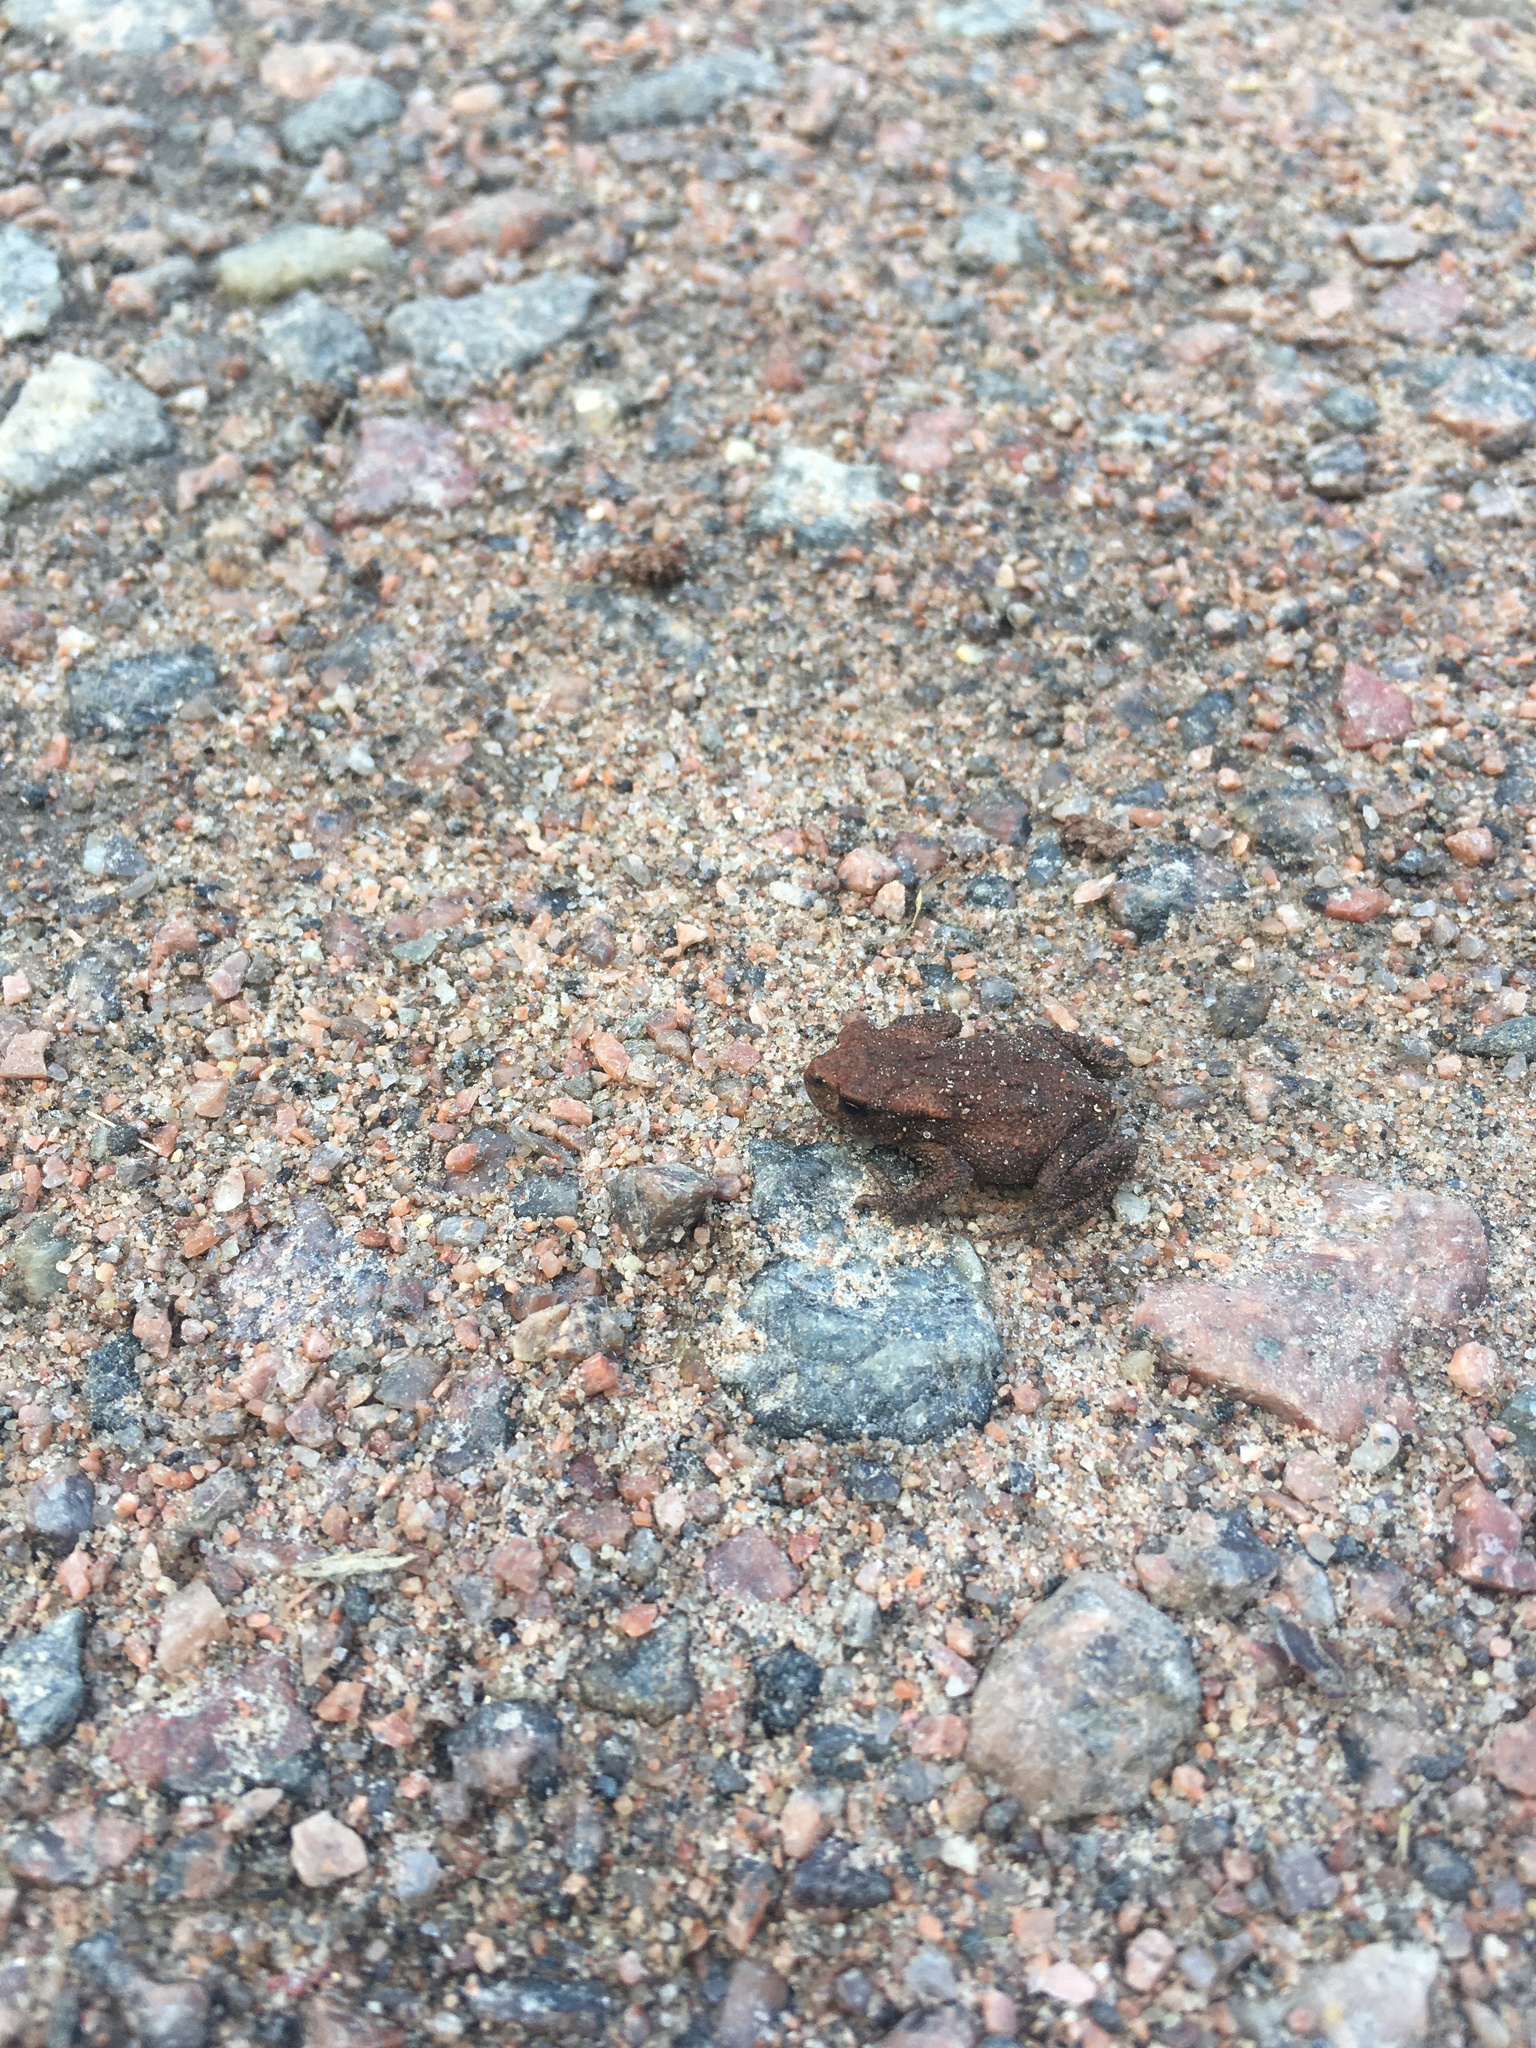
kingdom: Animalia
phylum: Chordata
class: Amphibia
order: Anura
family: Bufonidae
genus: Bufo
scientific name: Bufo bufo
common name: Common toad
